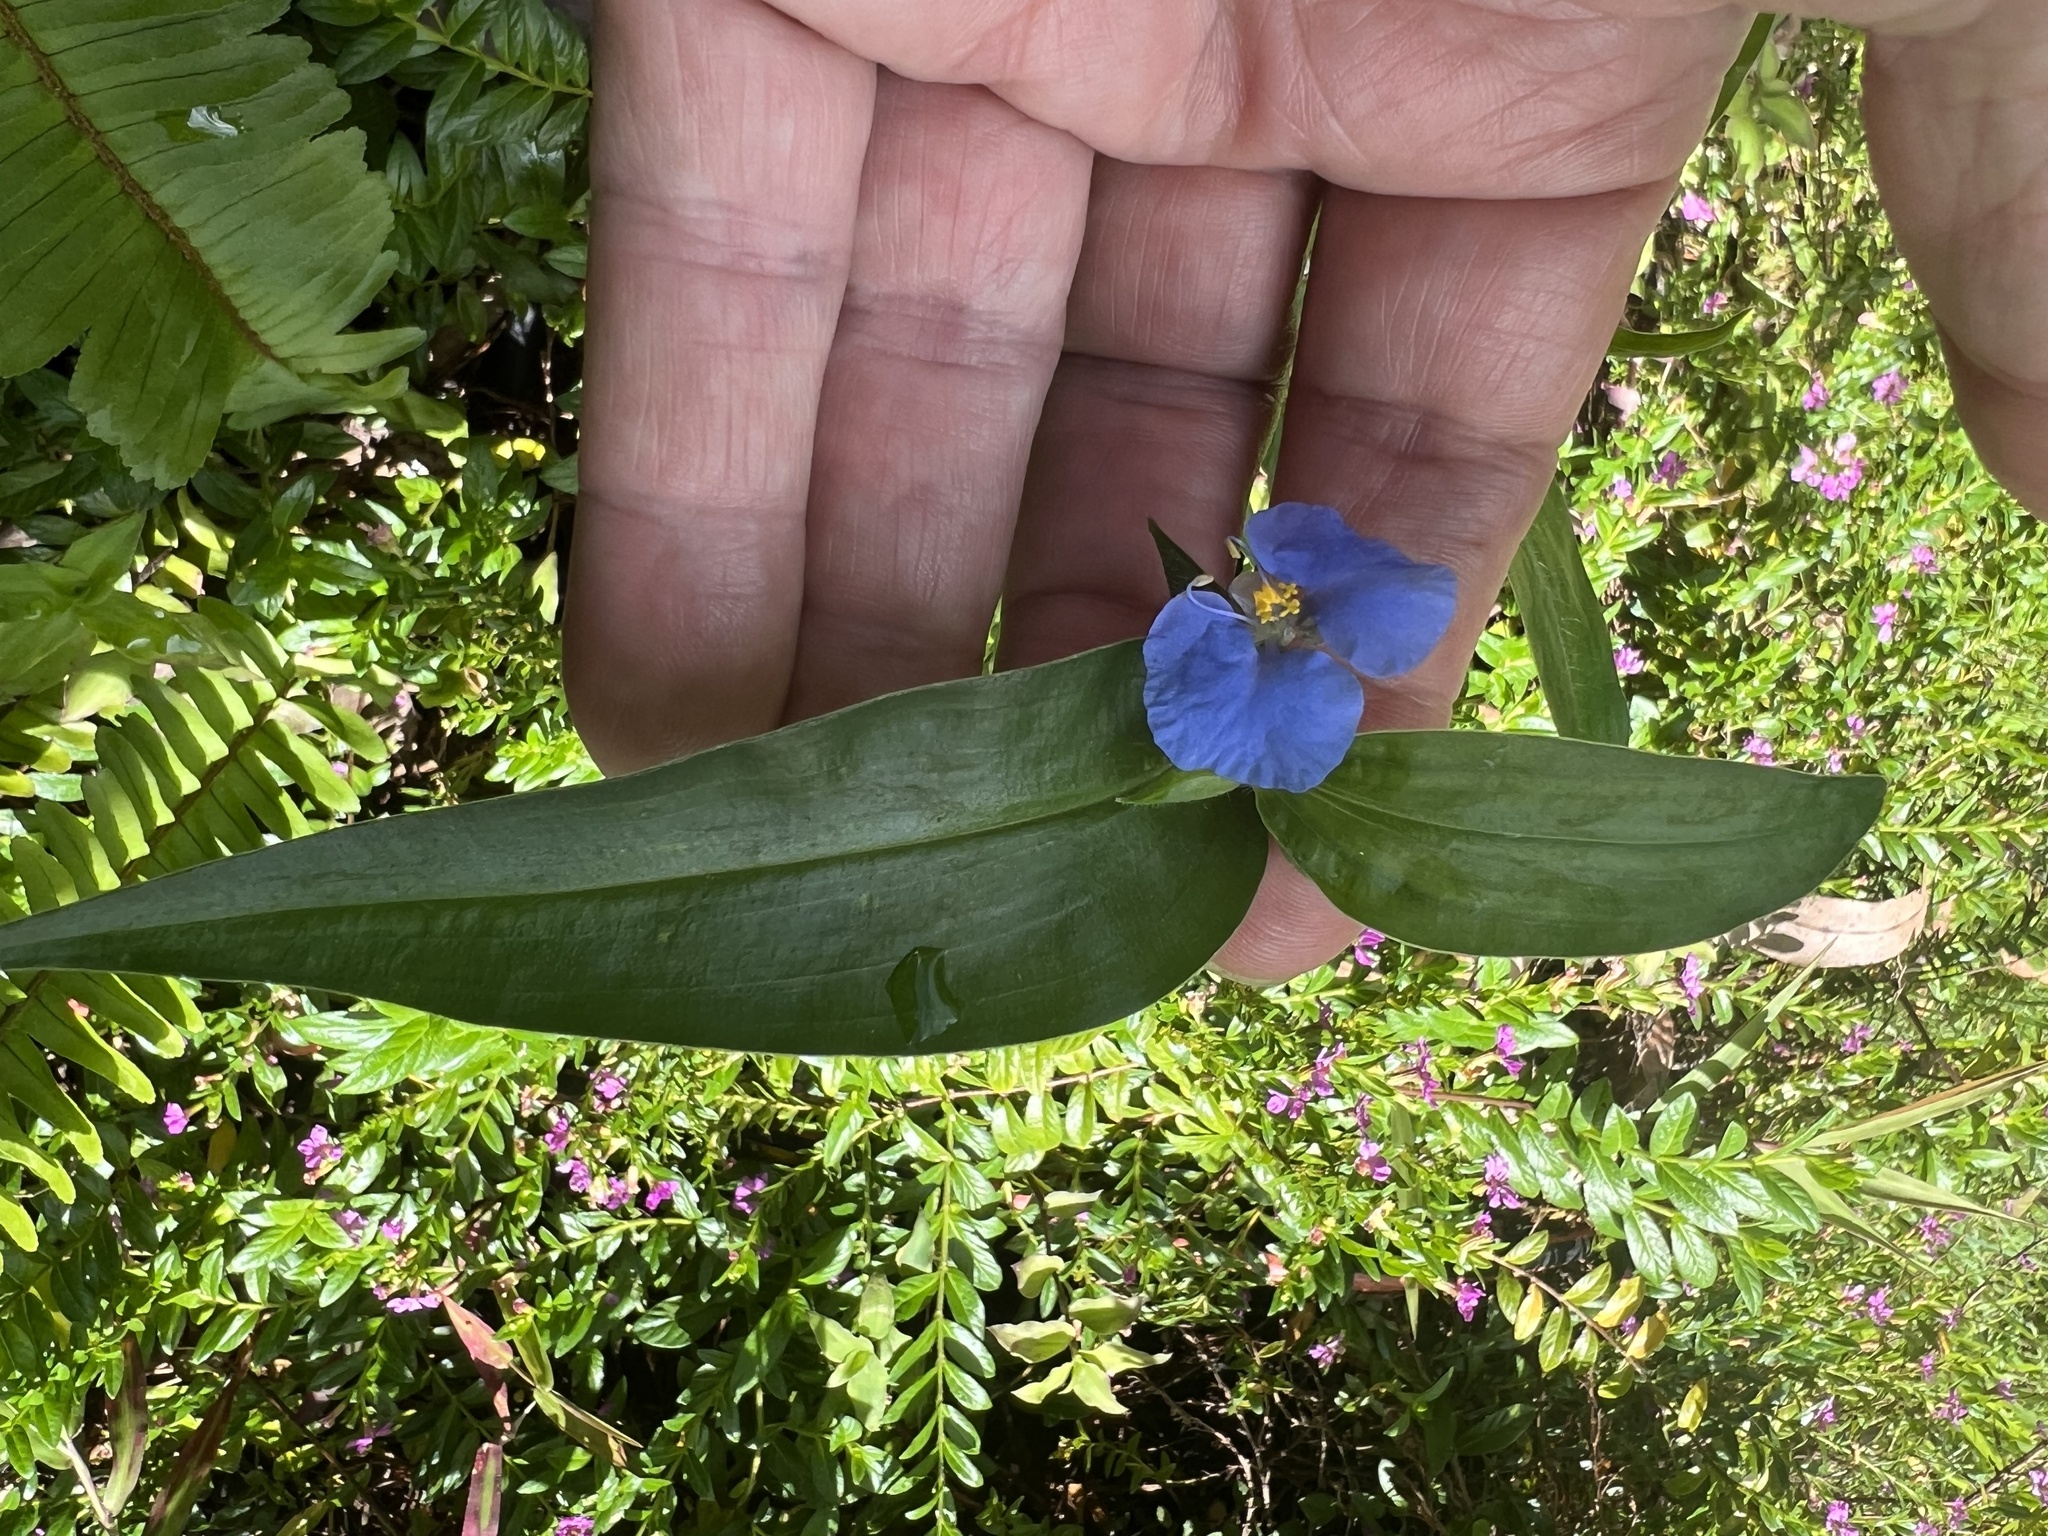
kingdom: Plantae
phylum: Tracheophyta
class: Liliopsida
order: Commelinales
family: Commelinaceae
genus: Commelina
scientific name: Commelina ensifolia
